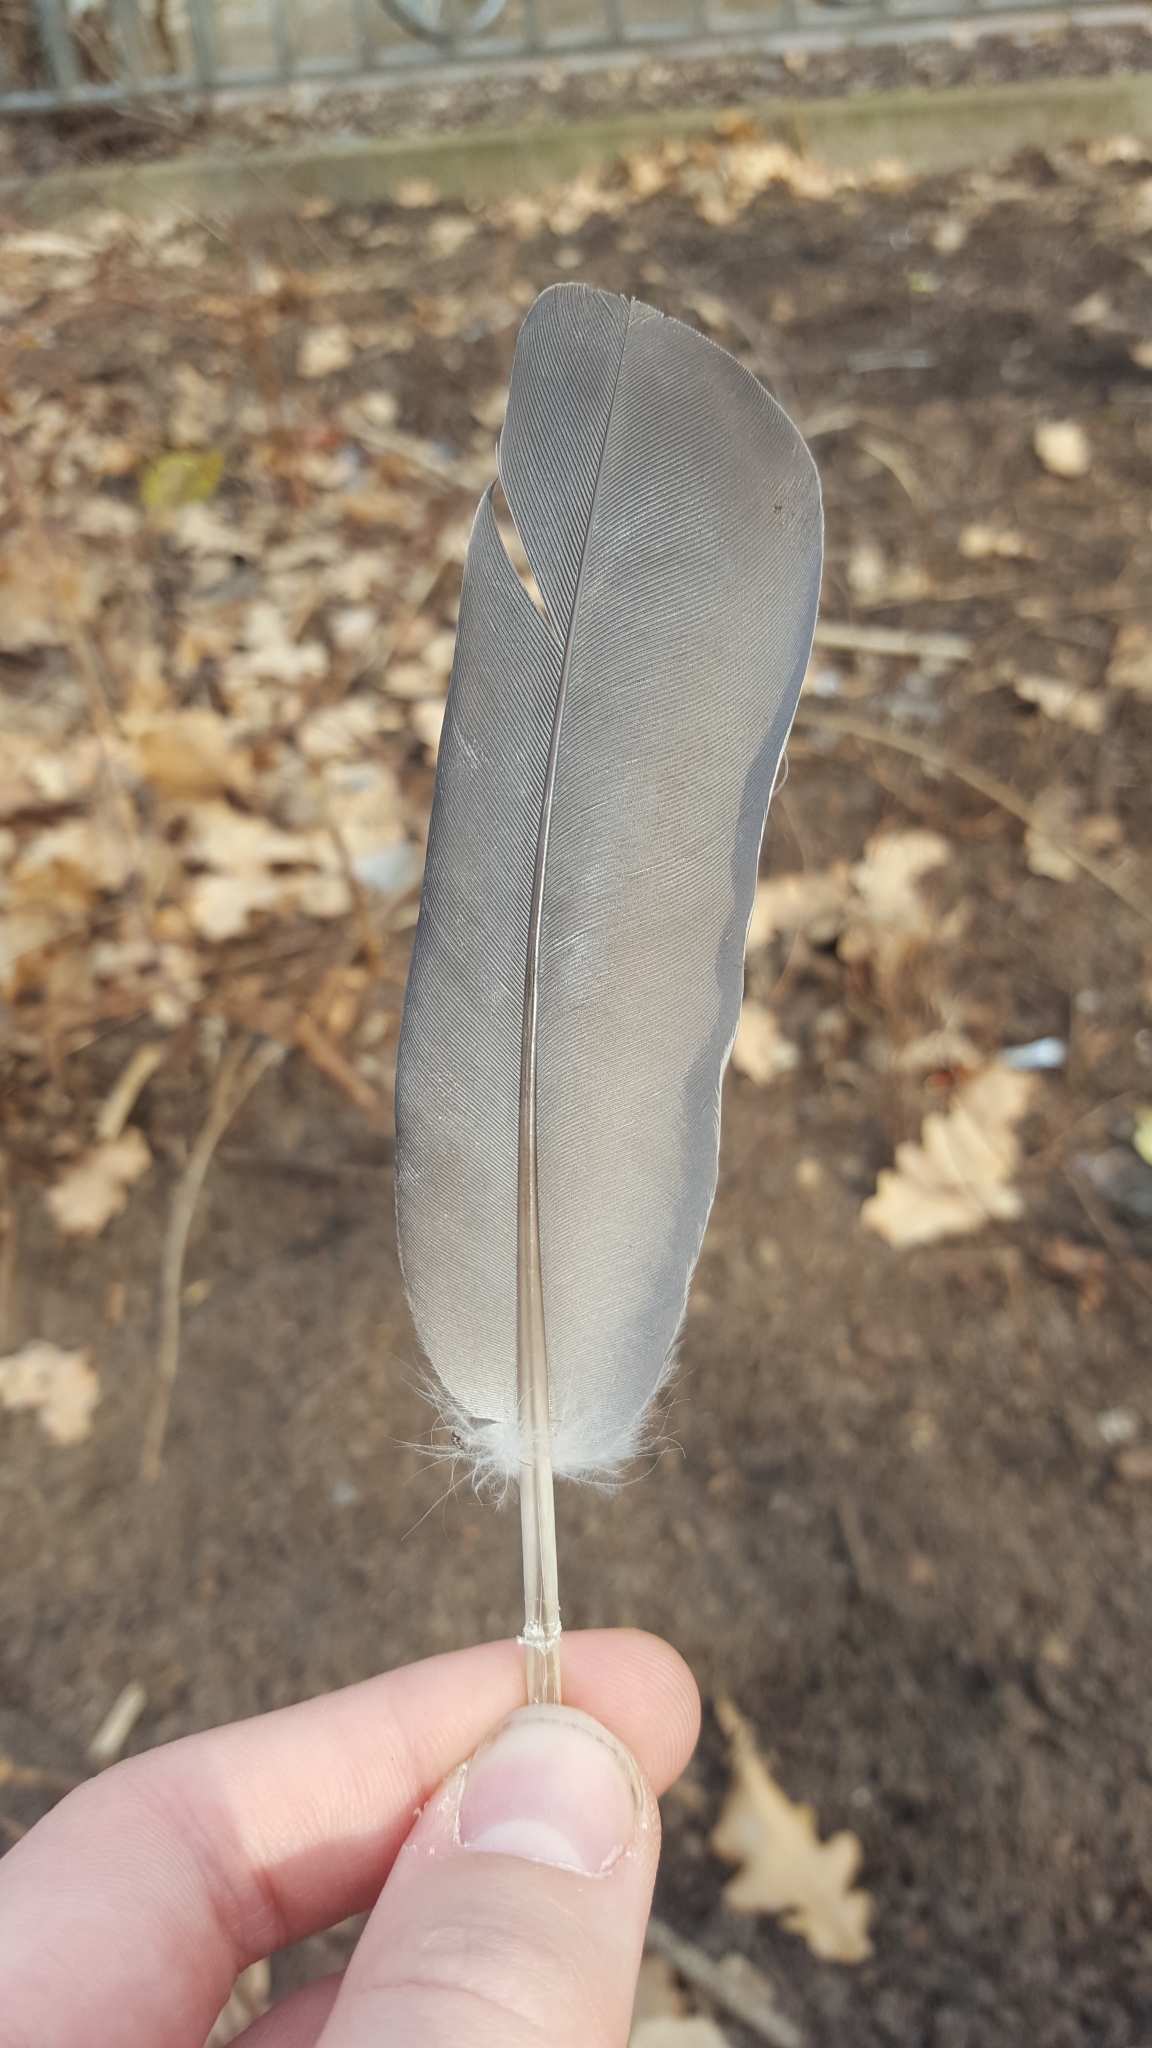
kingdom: Animalia
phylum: Chordata
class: Aves
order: Columbiformes
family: Columbidae
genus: Columba
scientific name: Columba palumbus
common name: Common wood pigeon
